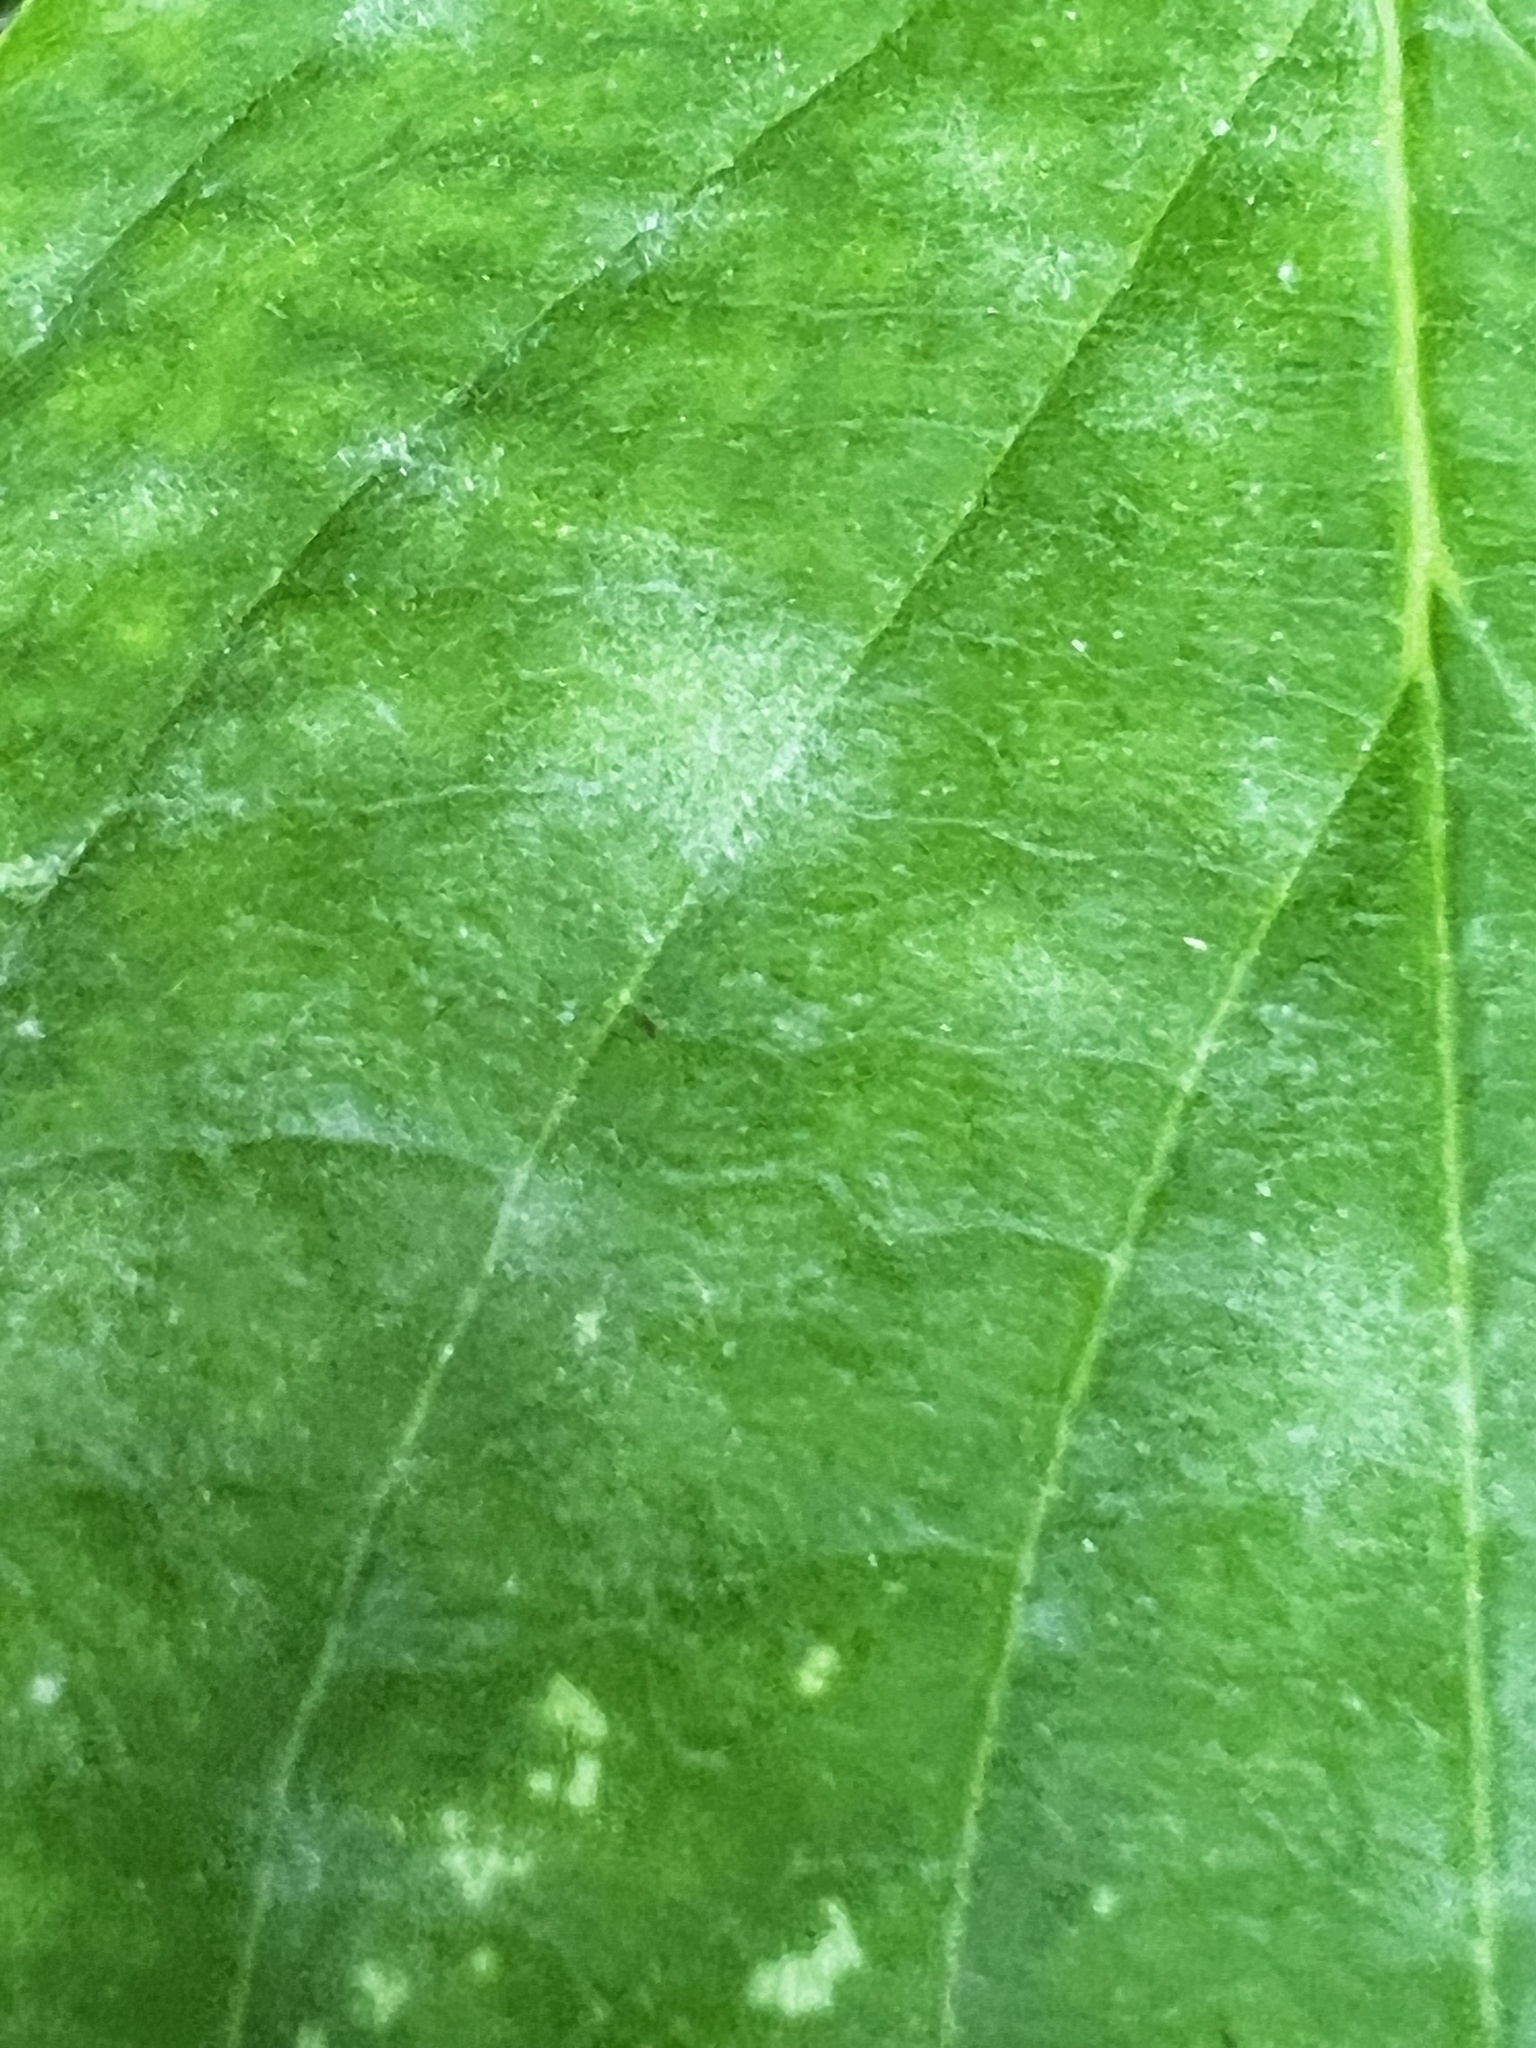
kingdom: Fungi
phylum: Ascomycota
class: Leotiomycetes
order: Helotiales
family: Erysiphaceae
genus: Erysiphe
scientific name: Erysiphe
